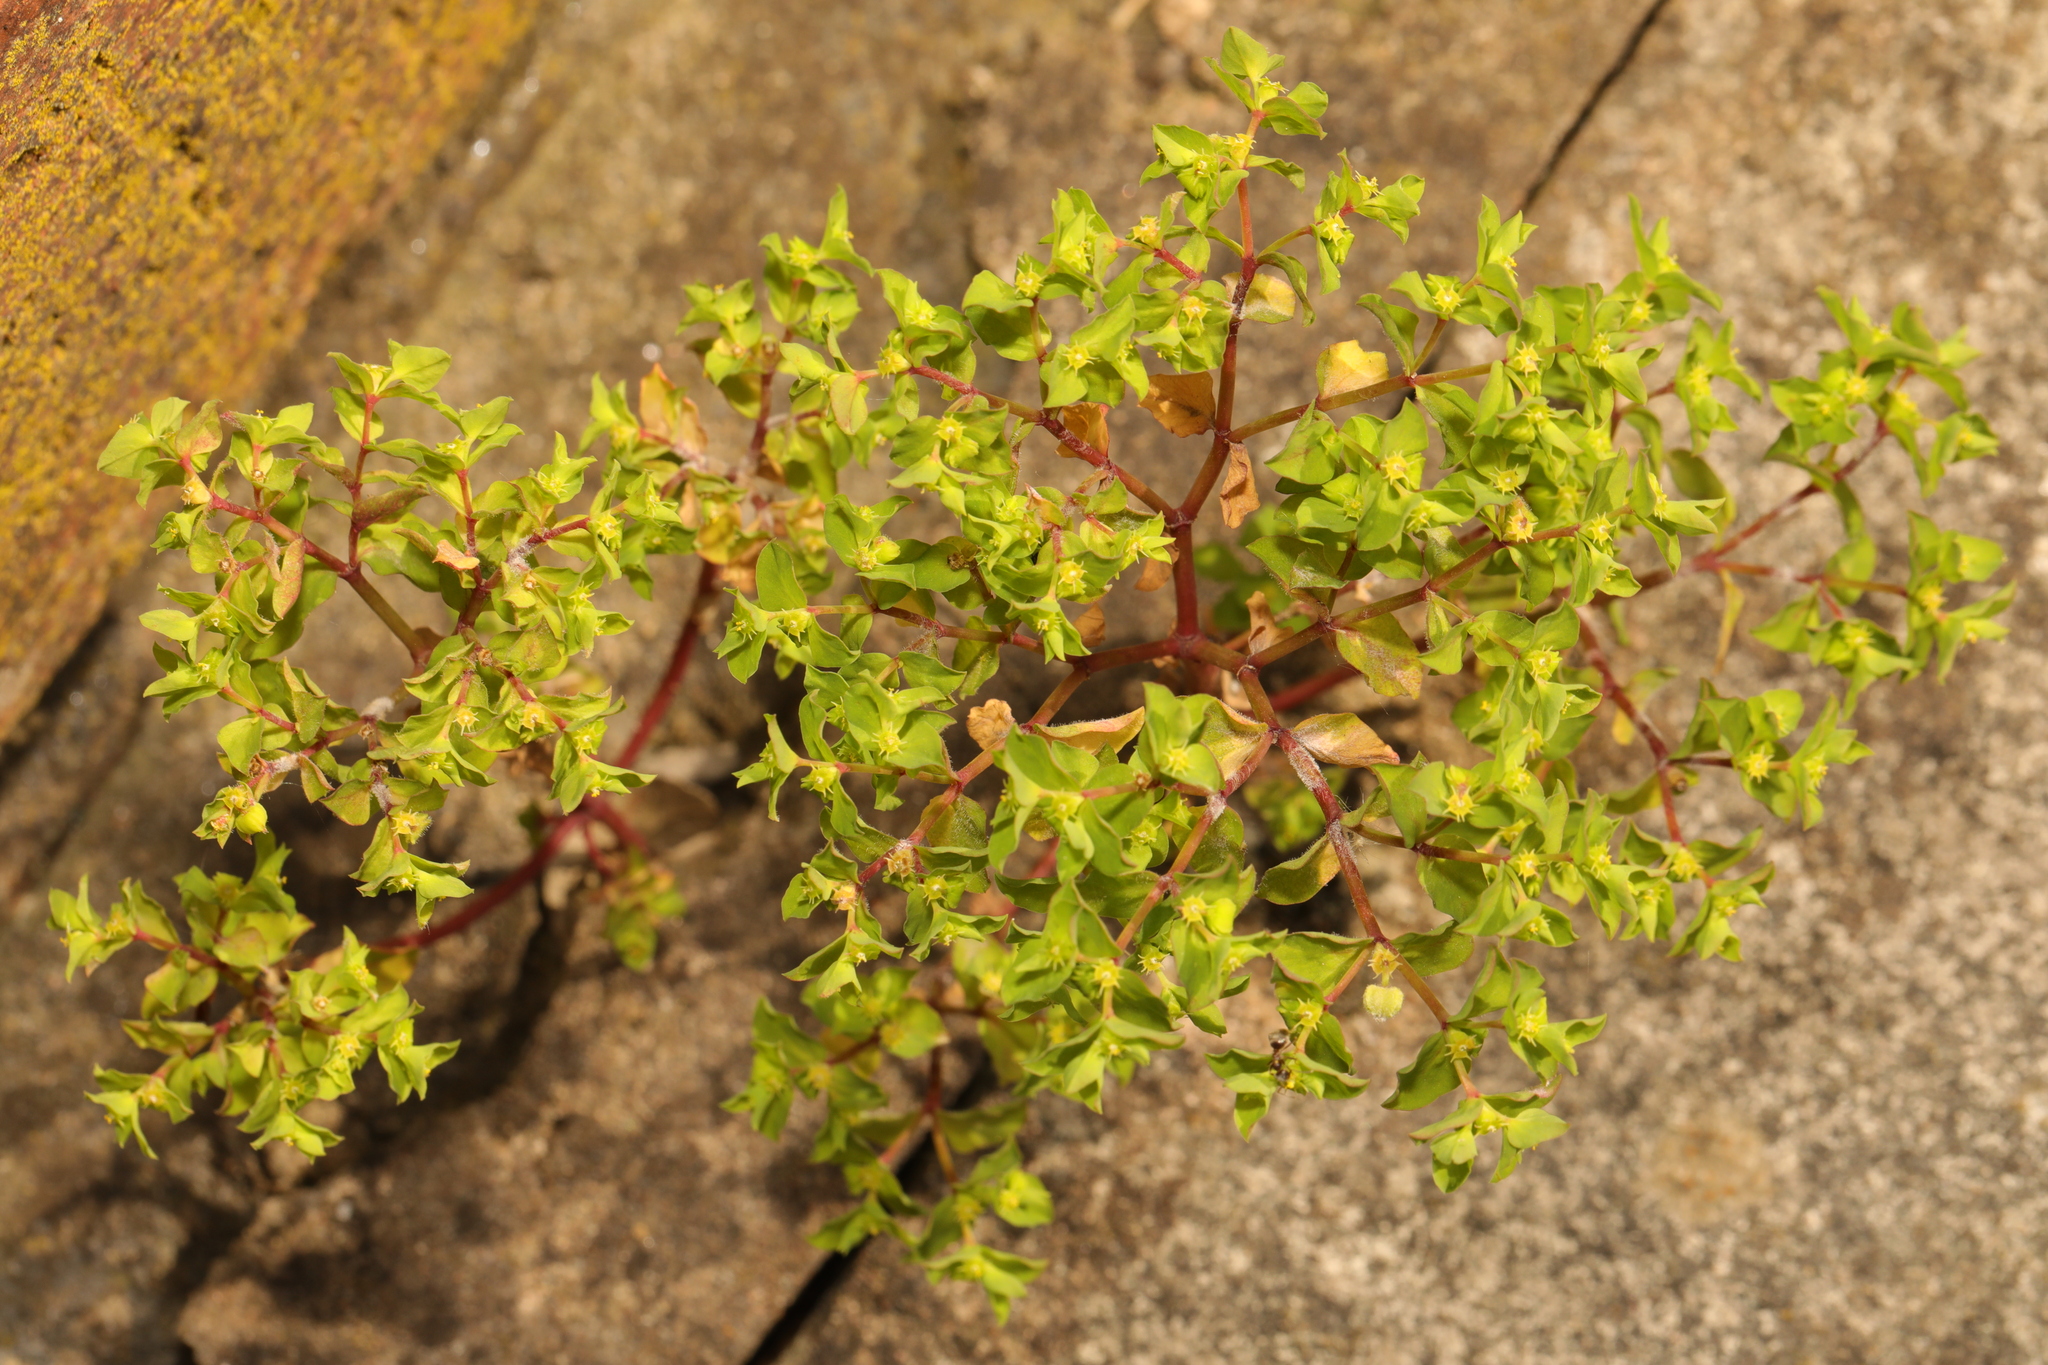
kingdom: Plantae
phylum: Tracheophyta
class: Magnoliopsida
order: Malpighiales
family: Euphorbiaceae
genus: Euphorbia
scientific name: Euphorbia peplus
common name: Petty spurge
